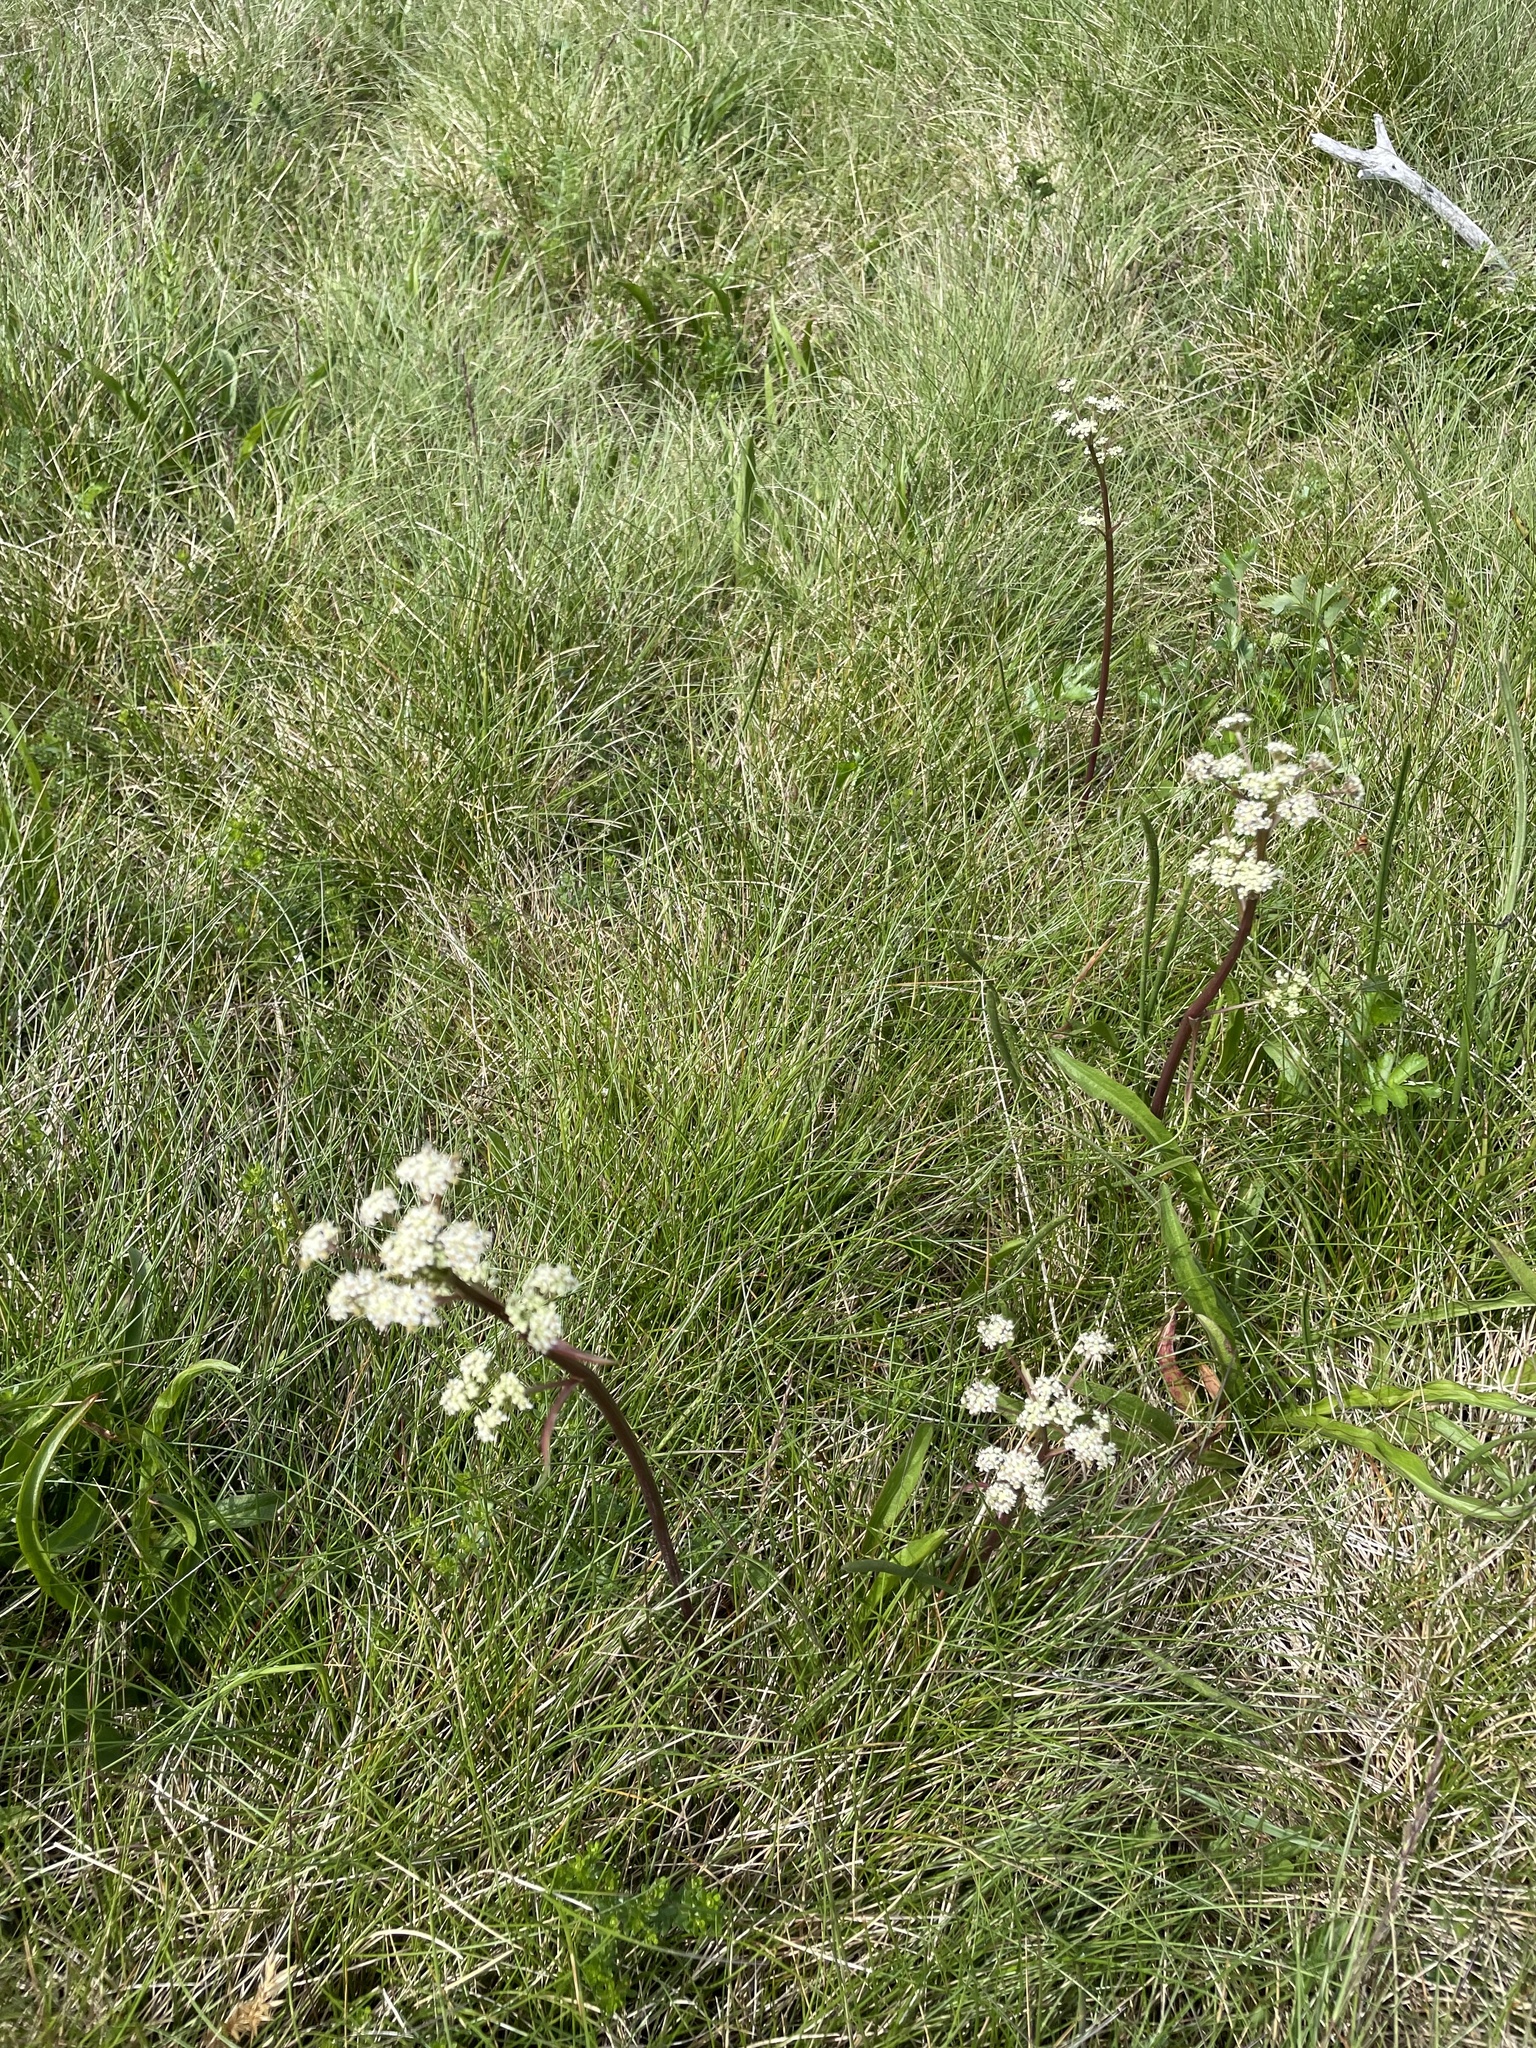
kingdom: Plantae
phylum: Tracheophyta
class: Magnoliopsida
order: Apiales
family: Apiaceae
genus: Aciphylla
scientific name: Aciphylla simplicifolia
